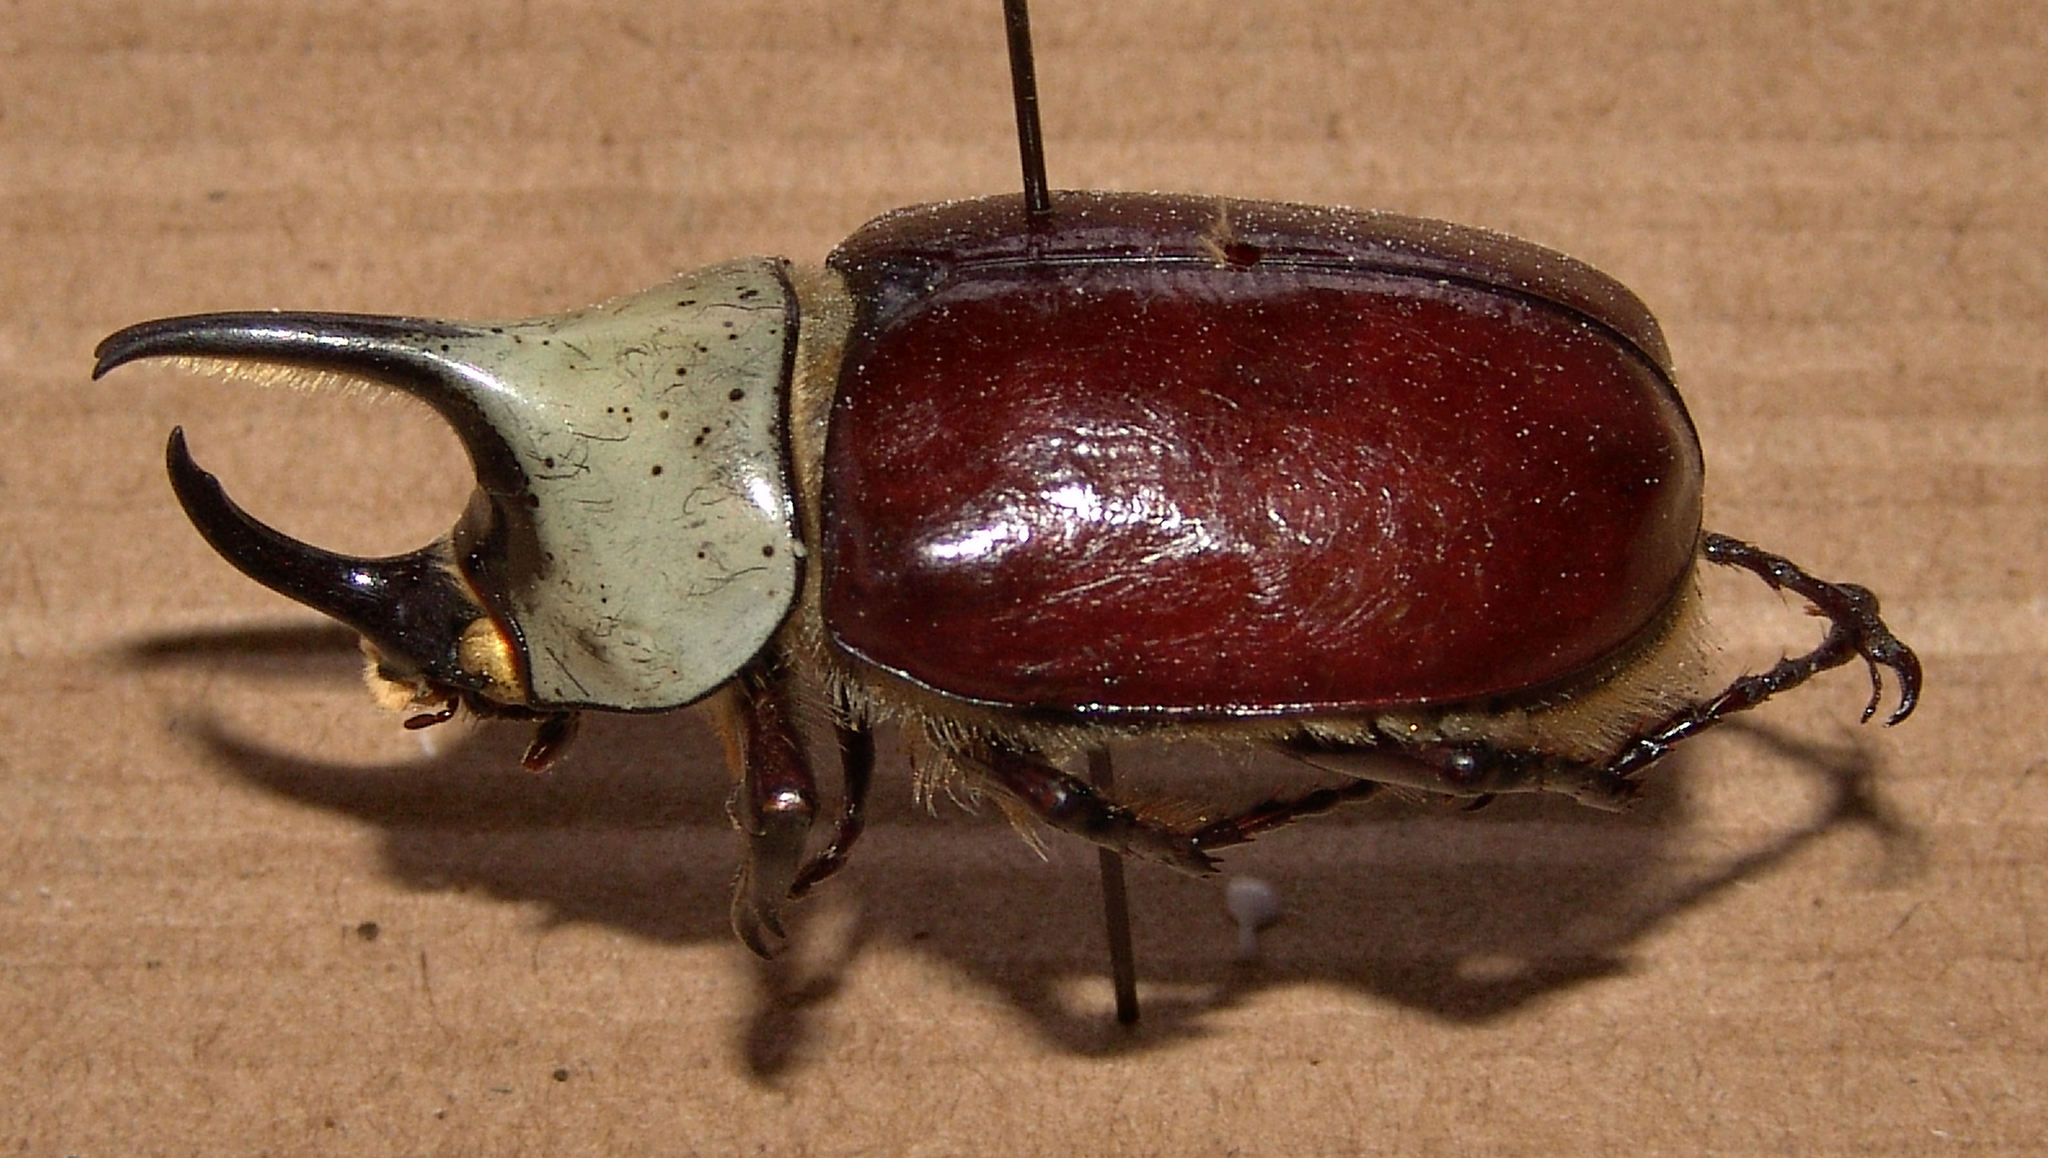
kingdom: Animalia
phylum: Arthropoda
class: Insecta
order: Coleoptera
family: Scarabaeidae
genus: Dynastes
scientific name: Dynastes grantii
